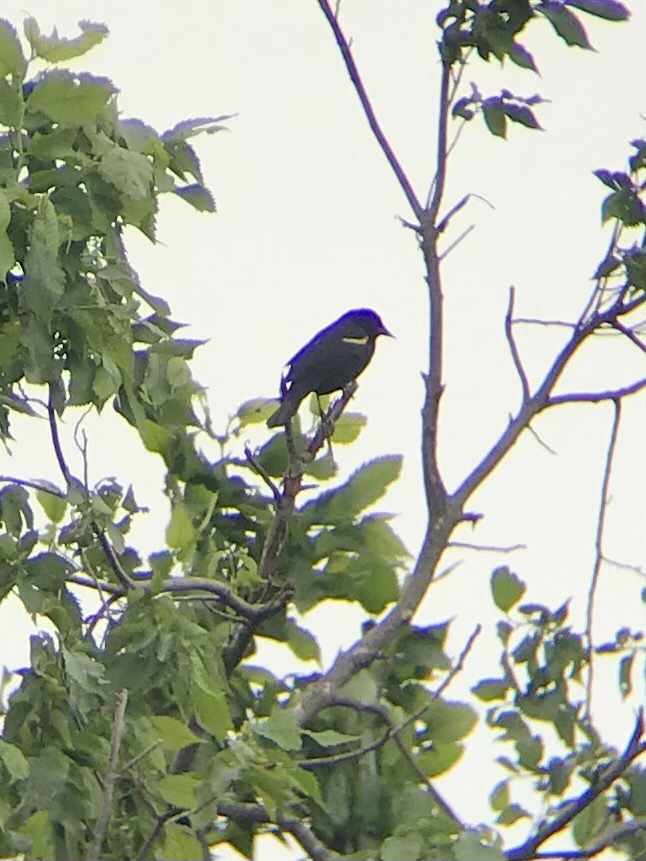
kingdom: Animalia
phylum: Chordata
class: Aves
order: Passeriformes
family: Icteridae
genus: Agelaius
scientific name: Agelaius phoeniceus
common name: Red-winged blackbird
